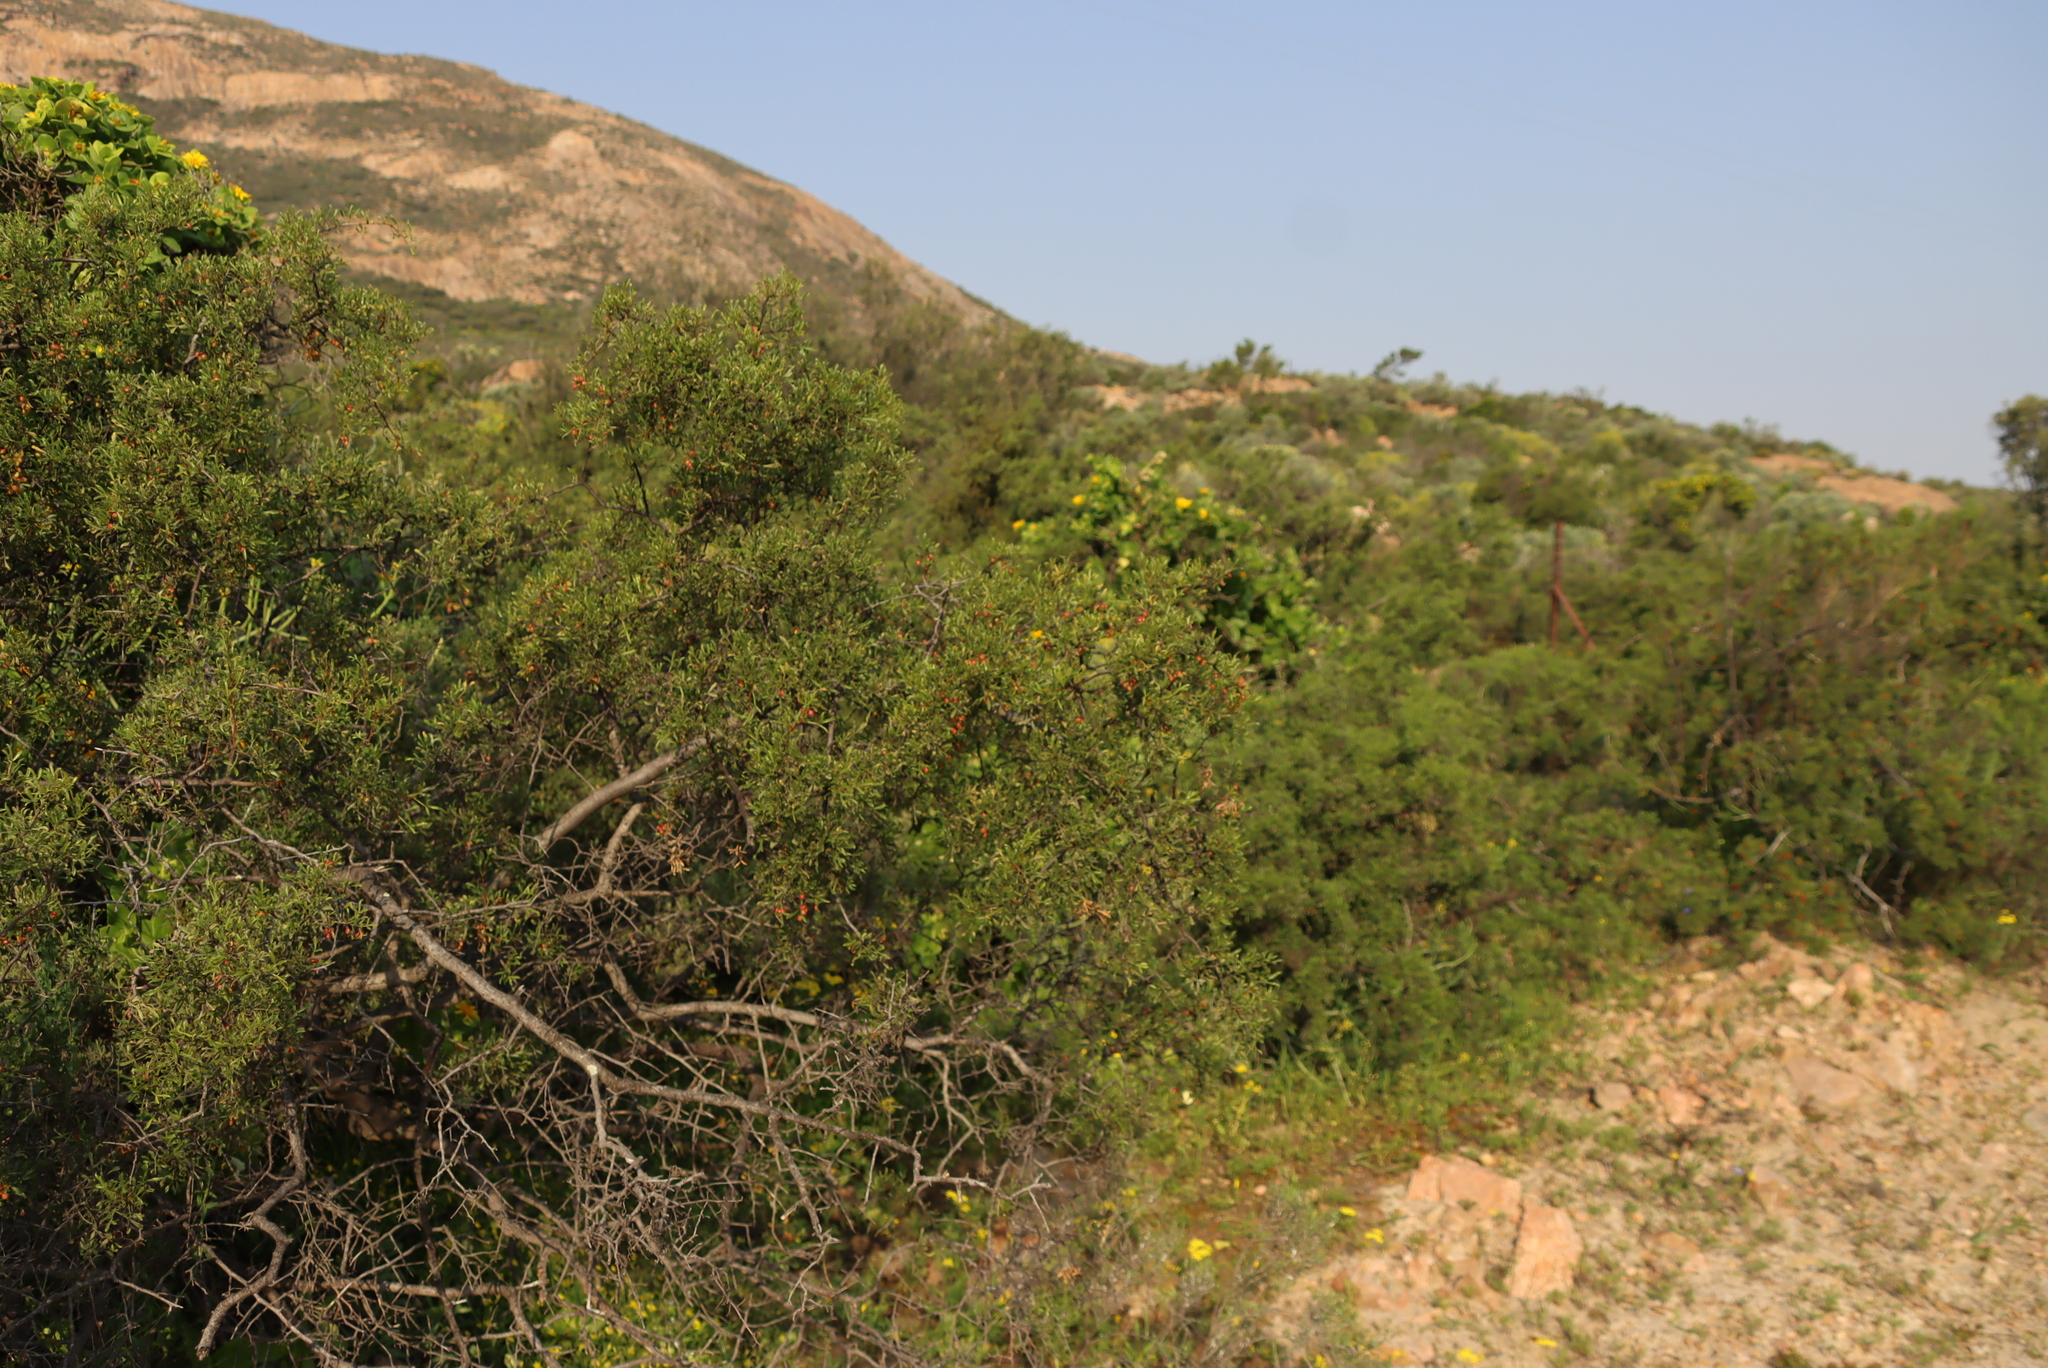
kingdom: Plantae
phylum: Tracheophyta
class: Magnoliopsida
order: Sapindales
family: Anacardiaceae
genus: Searsia
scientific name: Searsia undulata
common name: Namaqua kunibush
